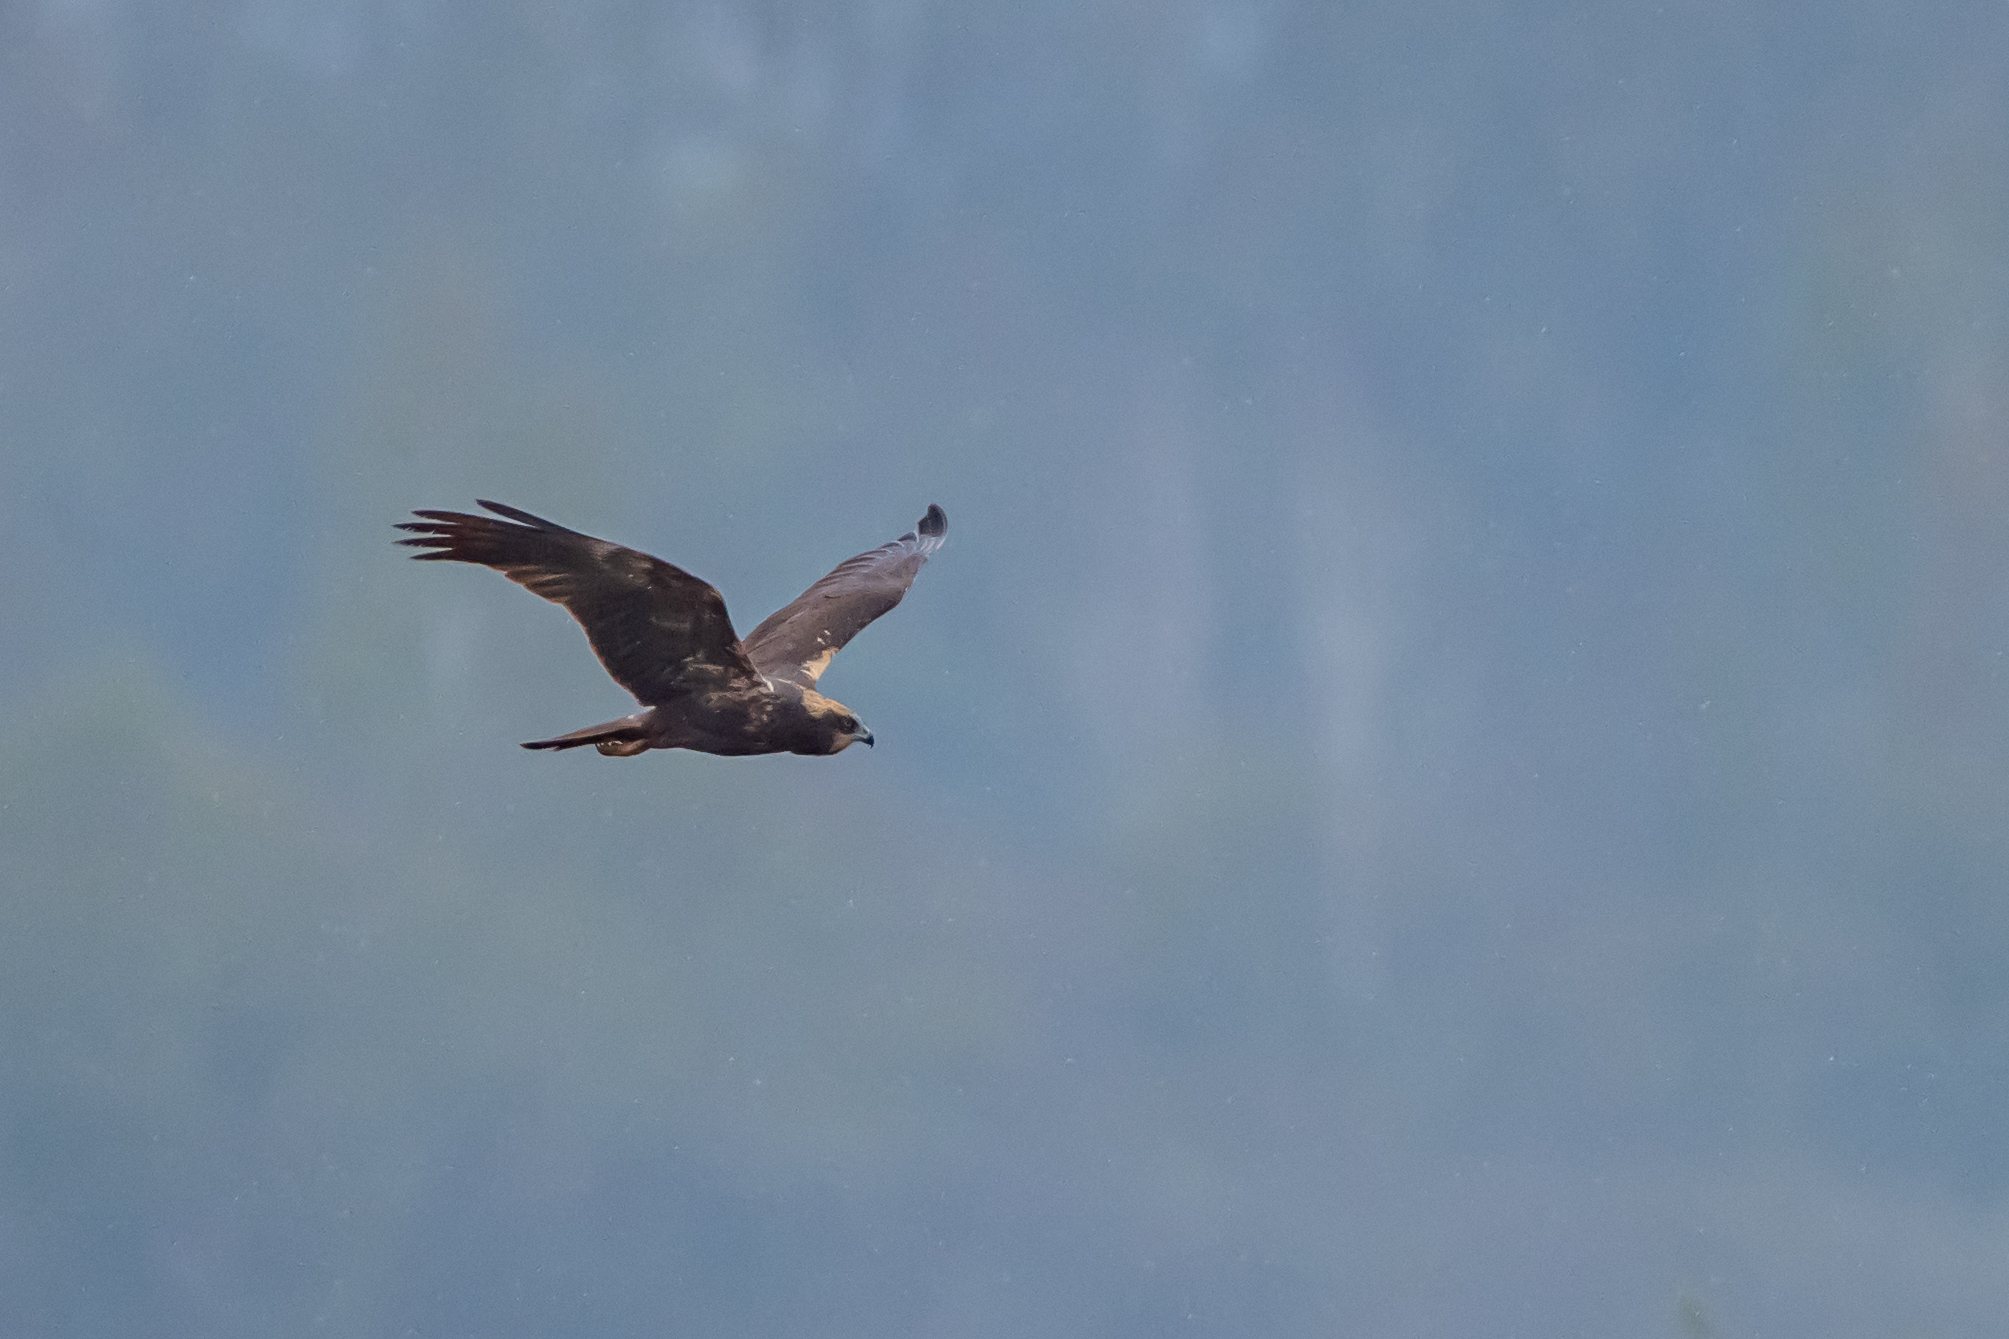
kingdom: Animalia
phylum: Chordata
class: Aves
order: Accipitriformes
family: Accipitridae
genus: Circus
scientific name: Circus aeruginosus
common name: Western marsh harrier
